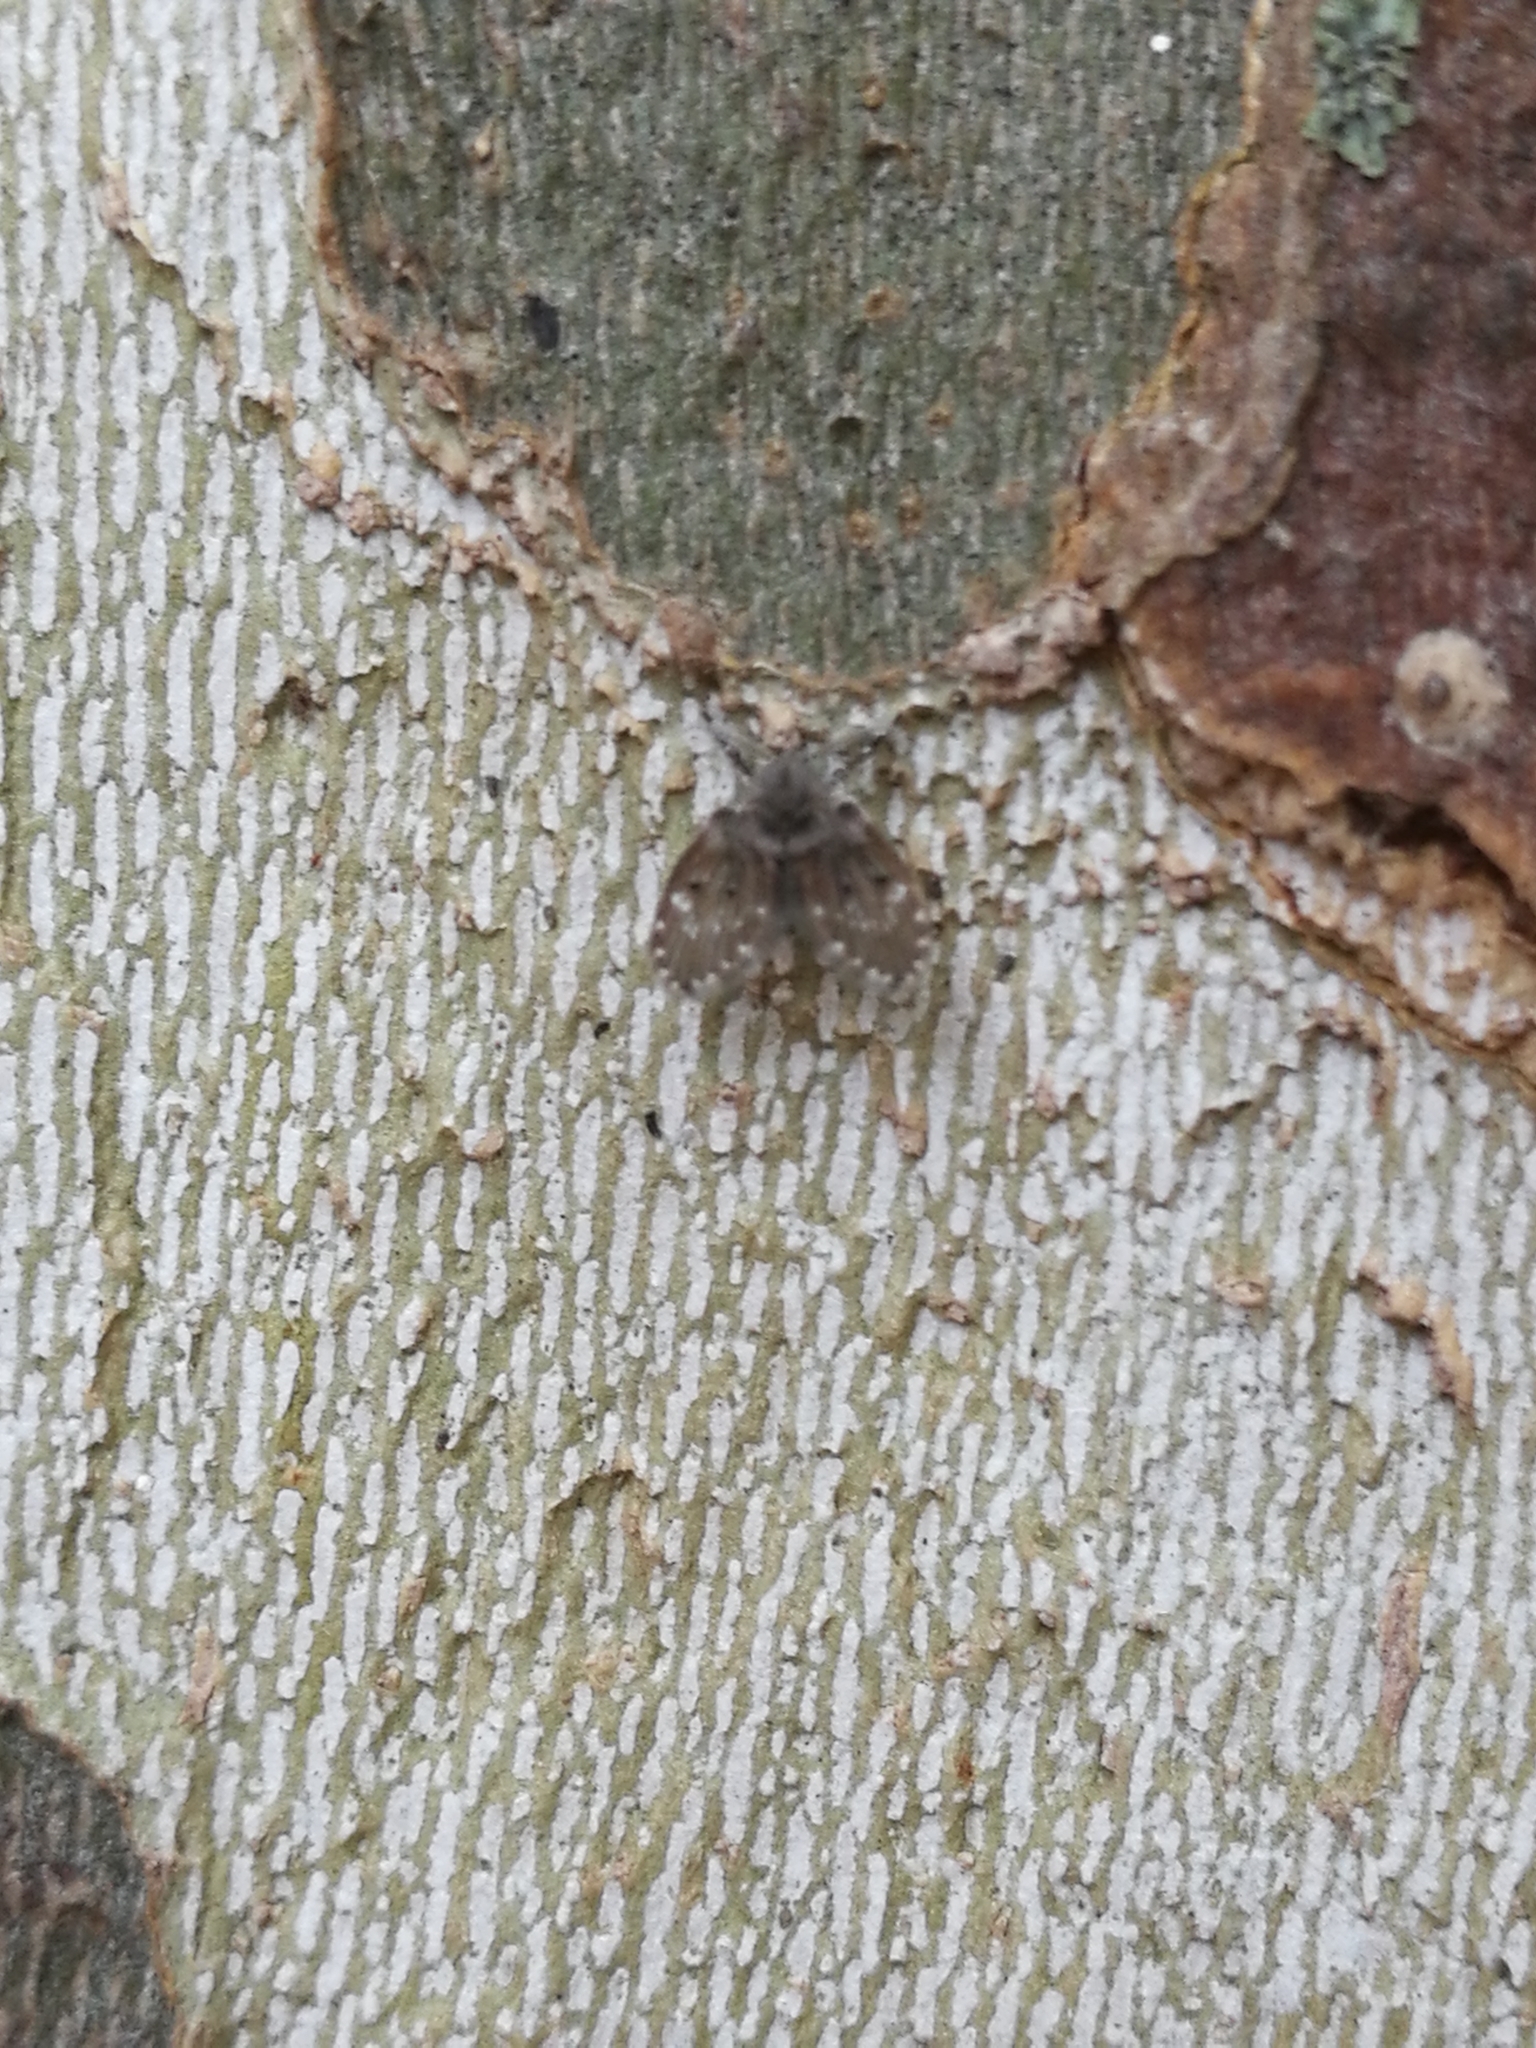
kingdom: Animalia
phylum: Arthropoda
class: Insecta
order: Diptera
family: Psychodidae
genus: Clogmia
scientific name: Clogmia albipunctatus
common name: White-spotted moth fly
